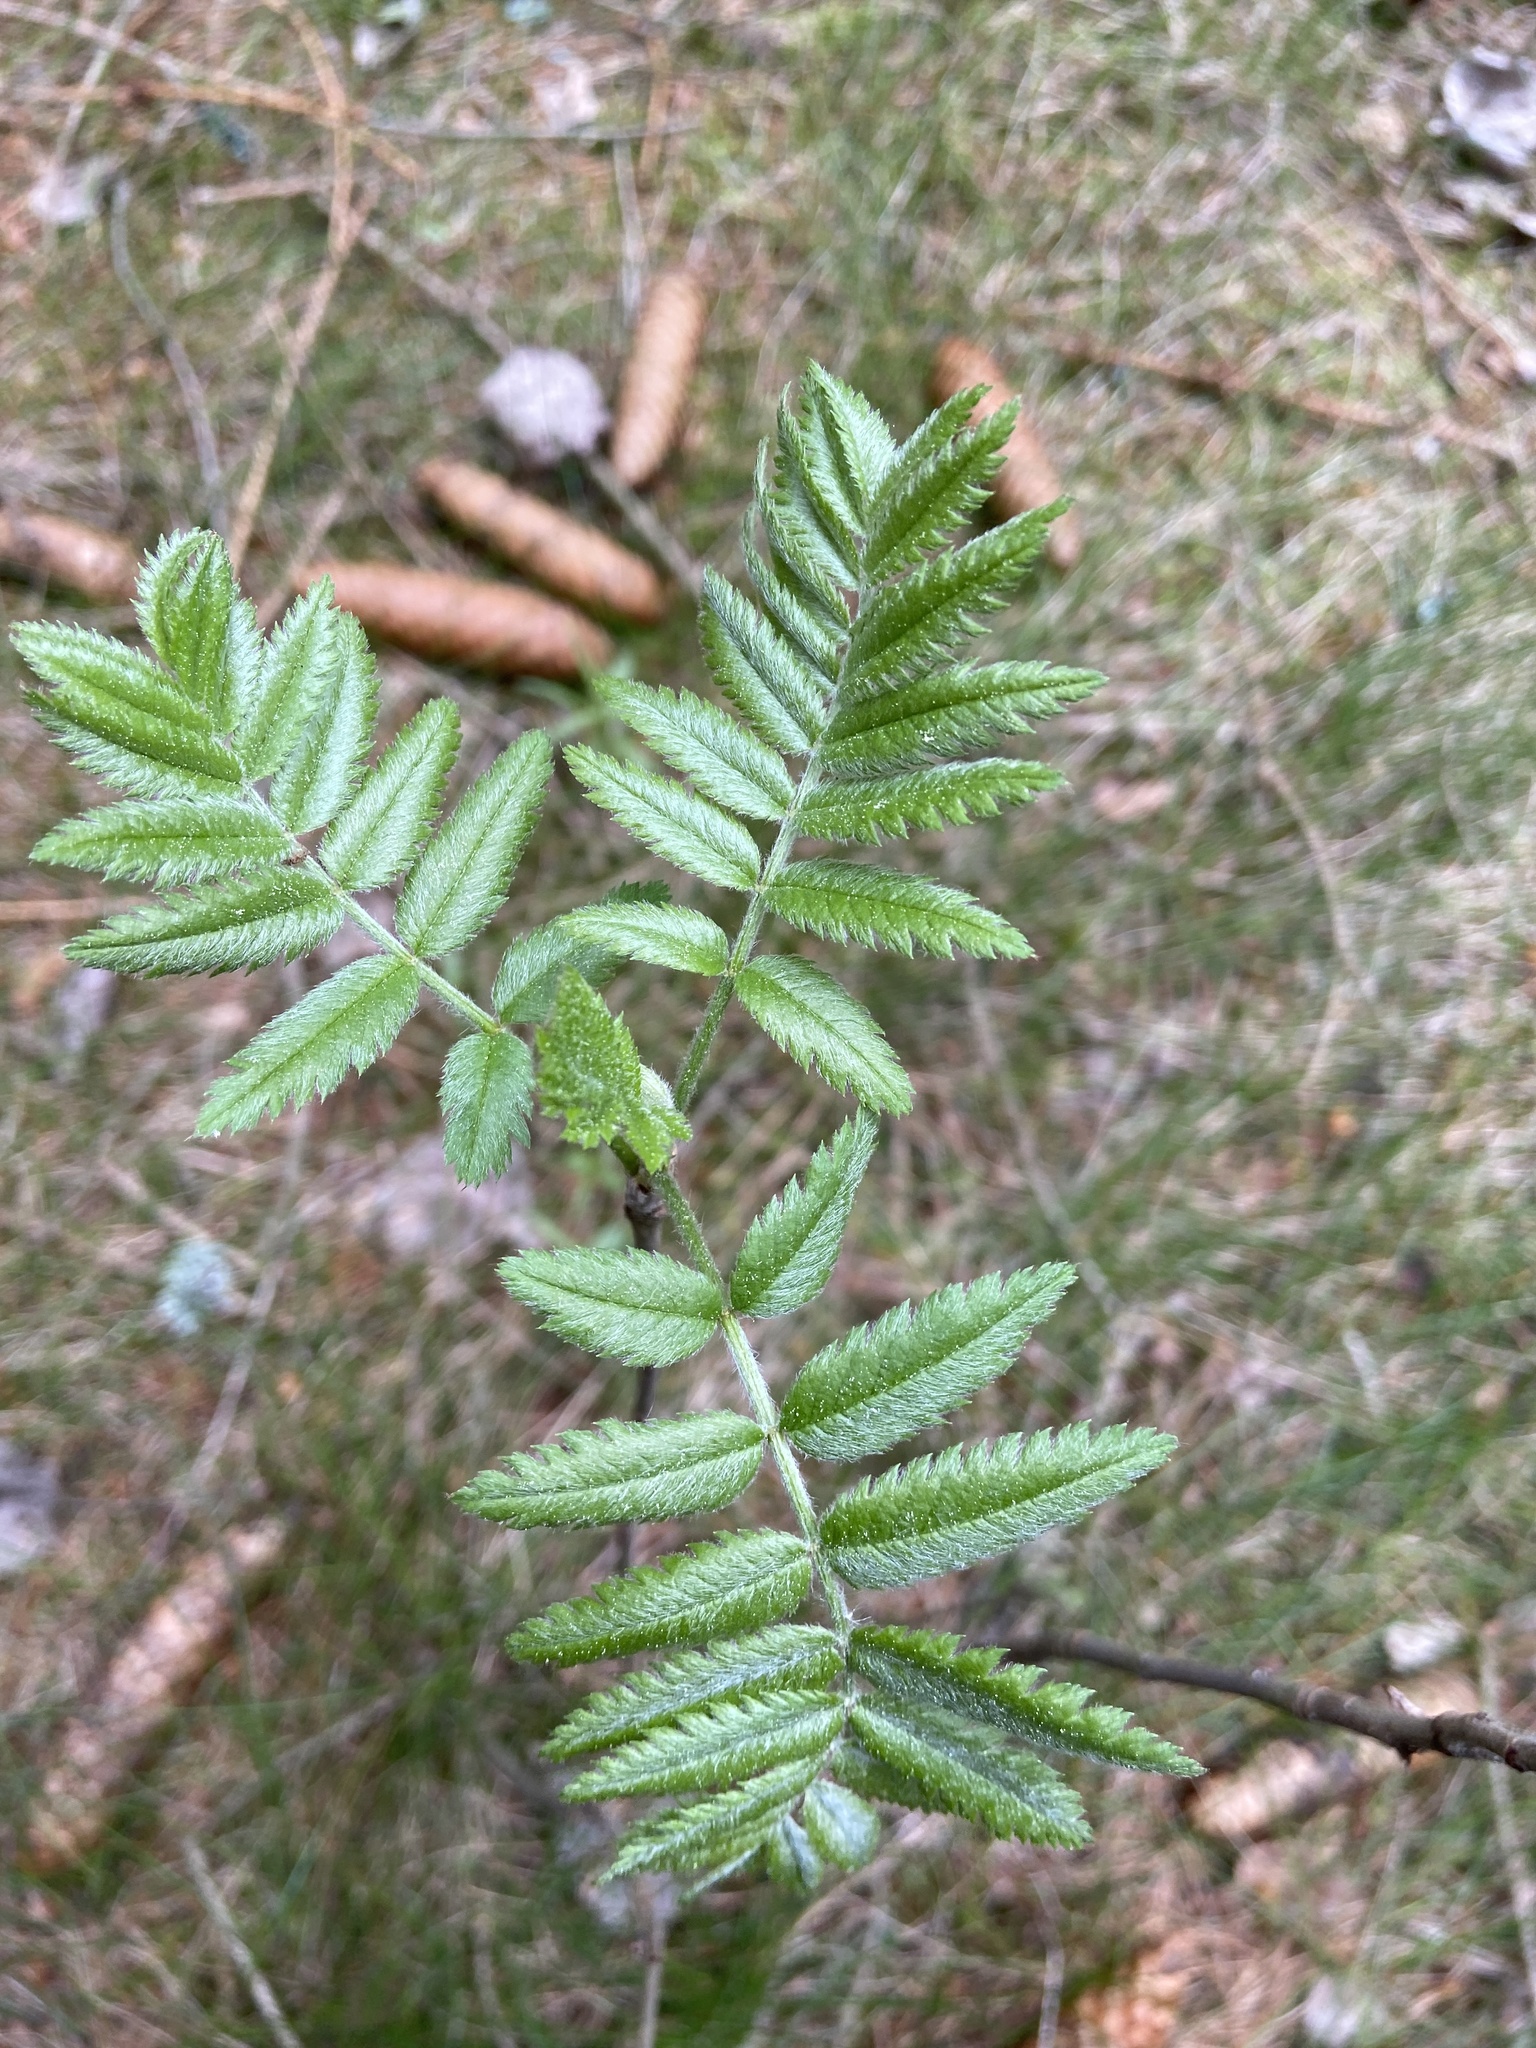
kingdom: Plantae
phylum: Tracheophyta
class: Magnoliopsida
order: Rosales
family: Rosaceae
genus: Sorbus
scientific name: Sorbus aucuparia
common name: Rowan
